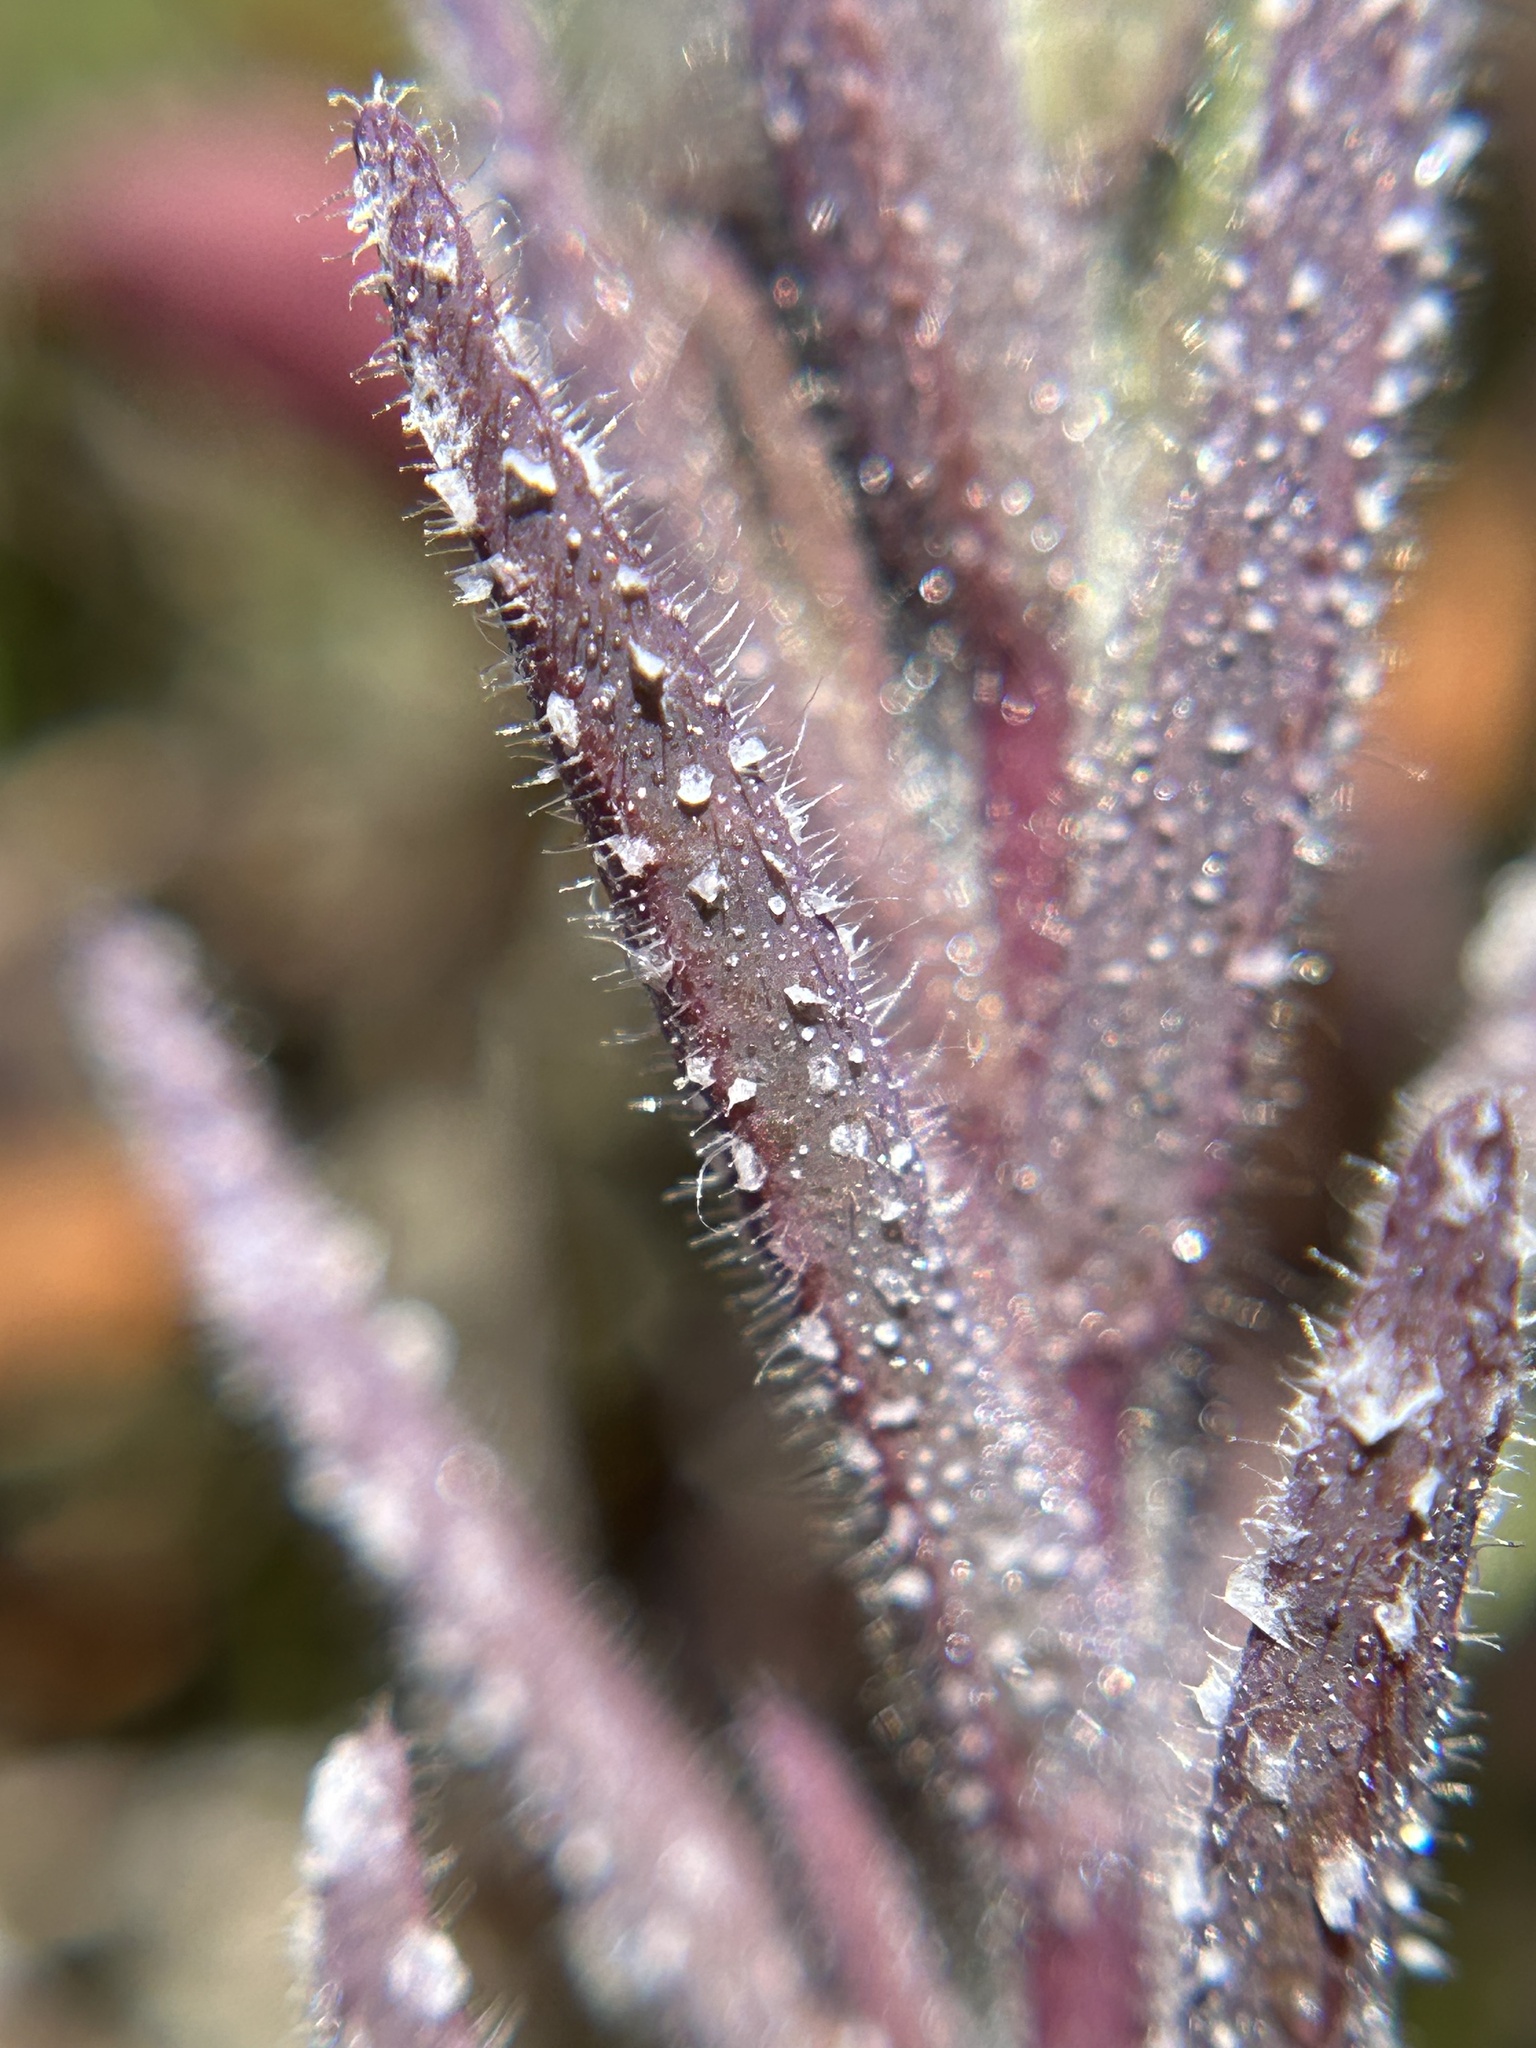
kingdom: Plantae
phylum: Tracheophyta
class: Magnoliopsida
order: Lamiales
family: Orobanchaceae
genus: Chloropyron
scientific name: Chloropyron maritimum
